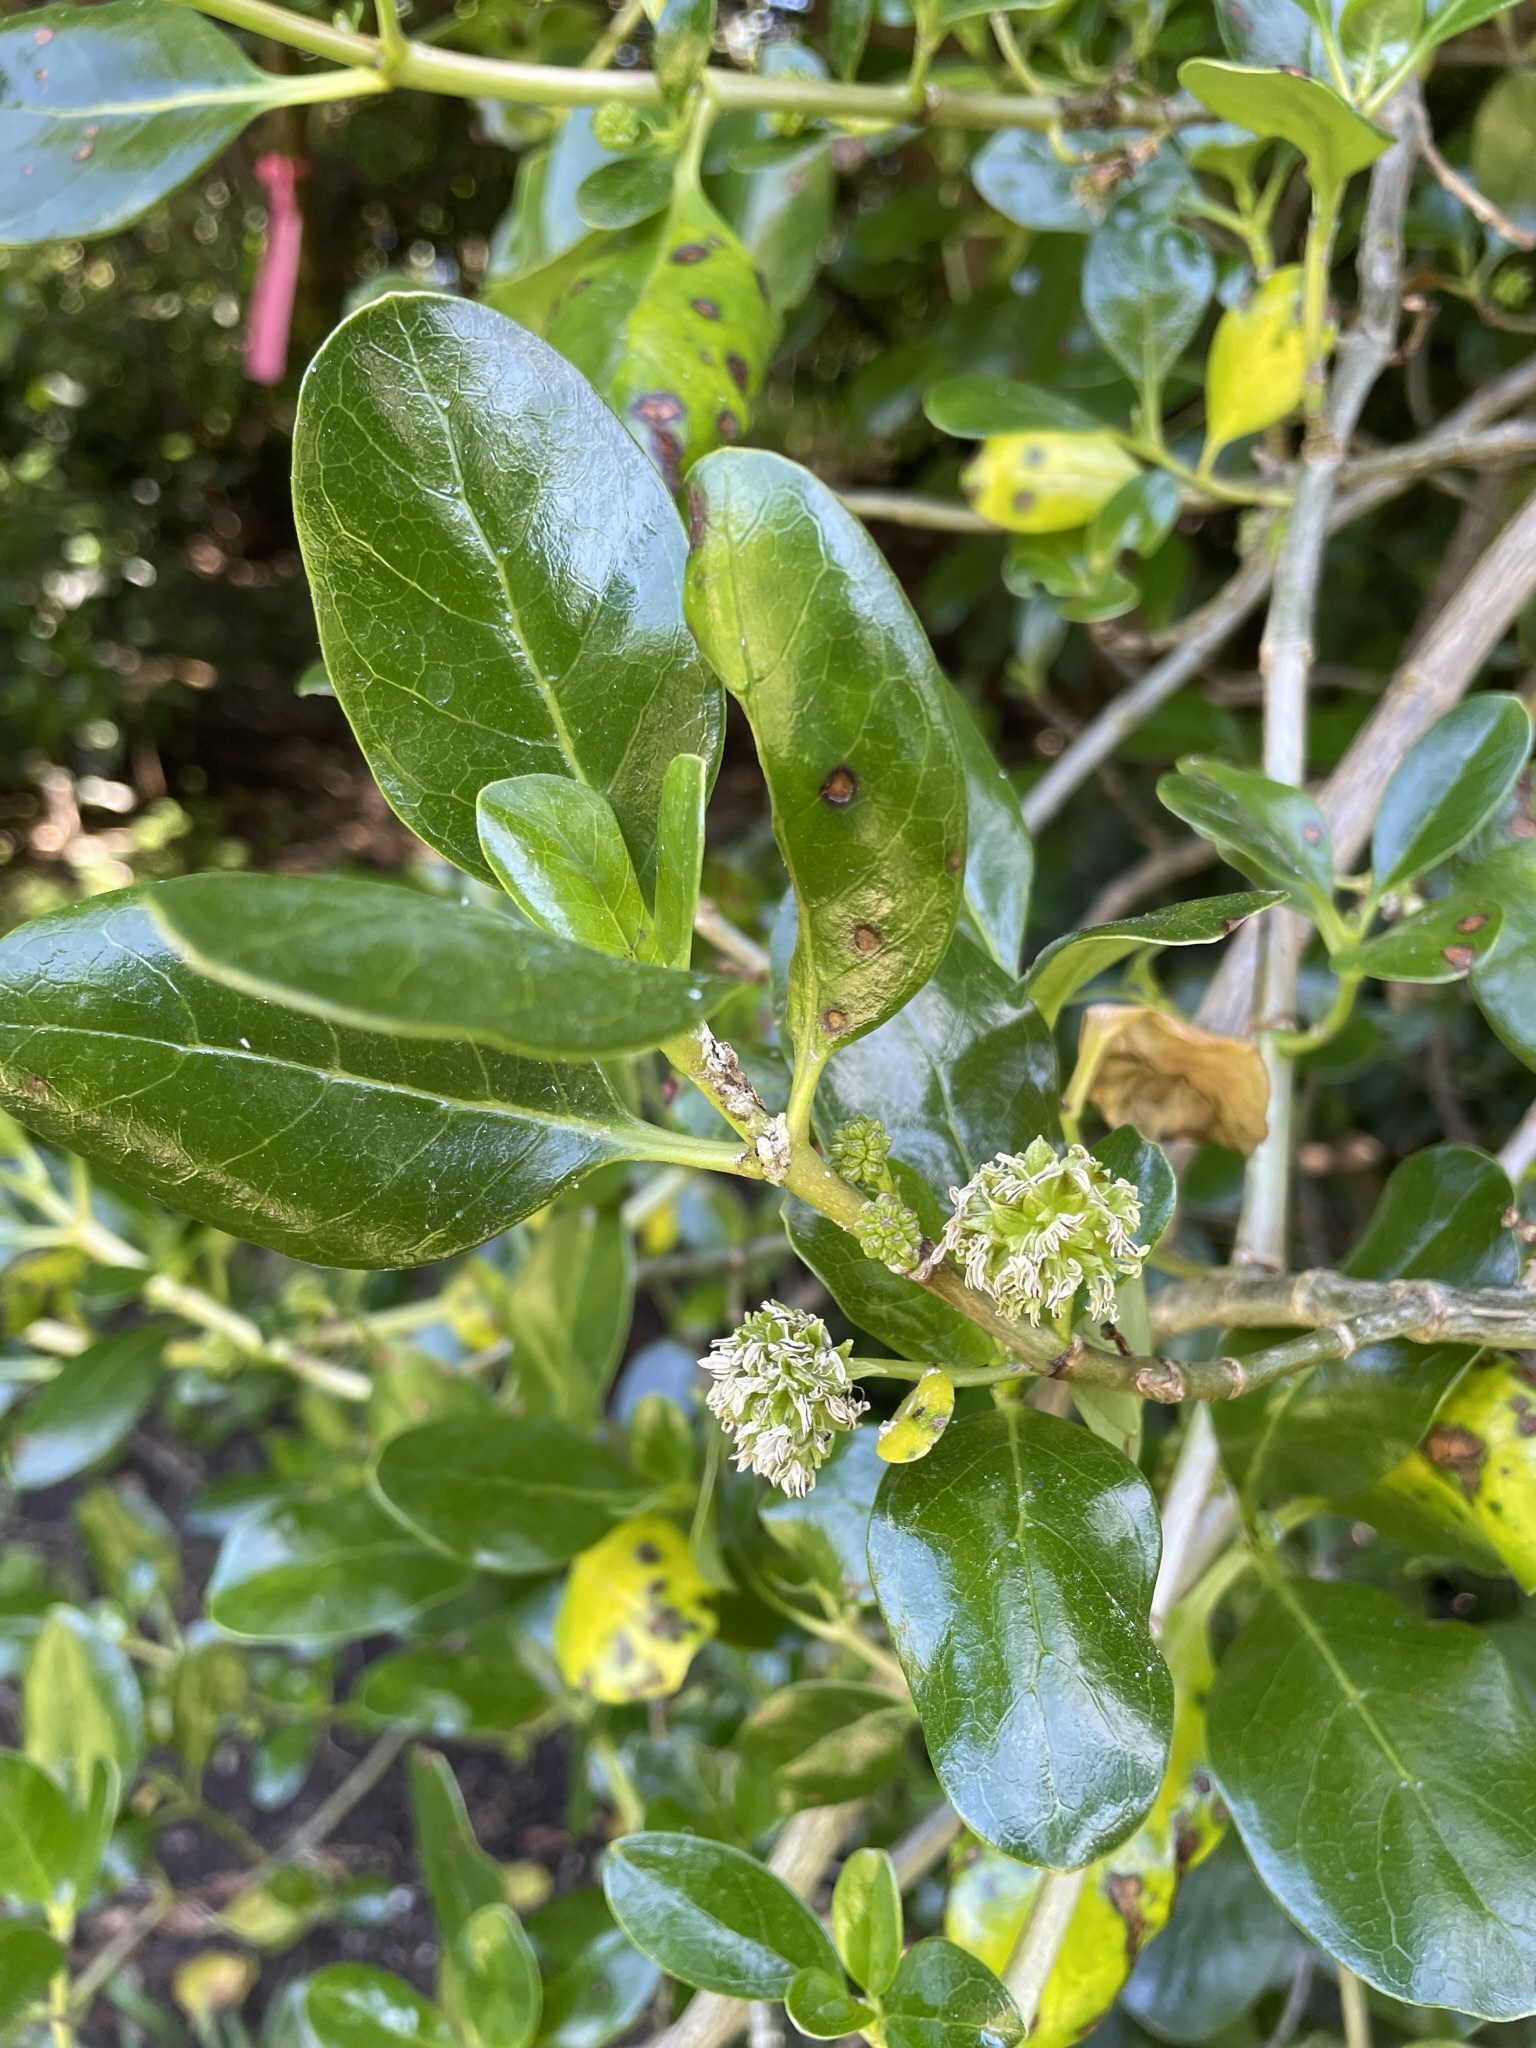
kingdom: Plantae
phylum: Tracheophyta
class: Magnoliopsida
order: Gentianales
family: Rubiaceae
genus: Coprosma
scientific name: Coprosma repens
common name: Tree bedstraw
